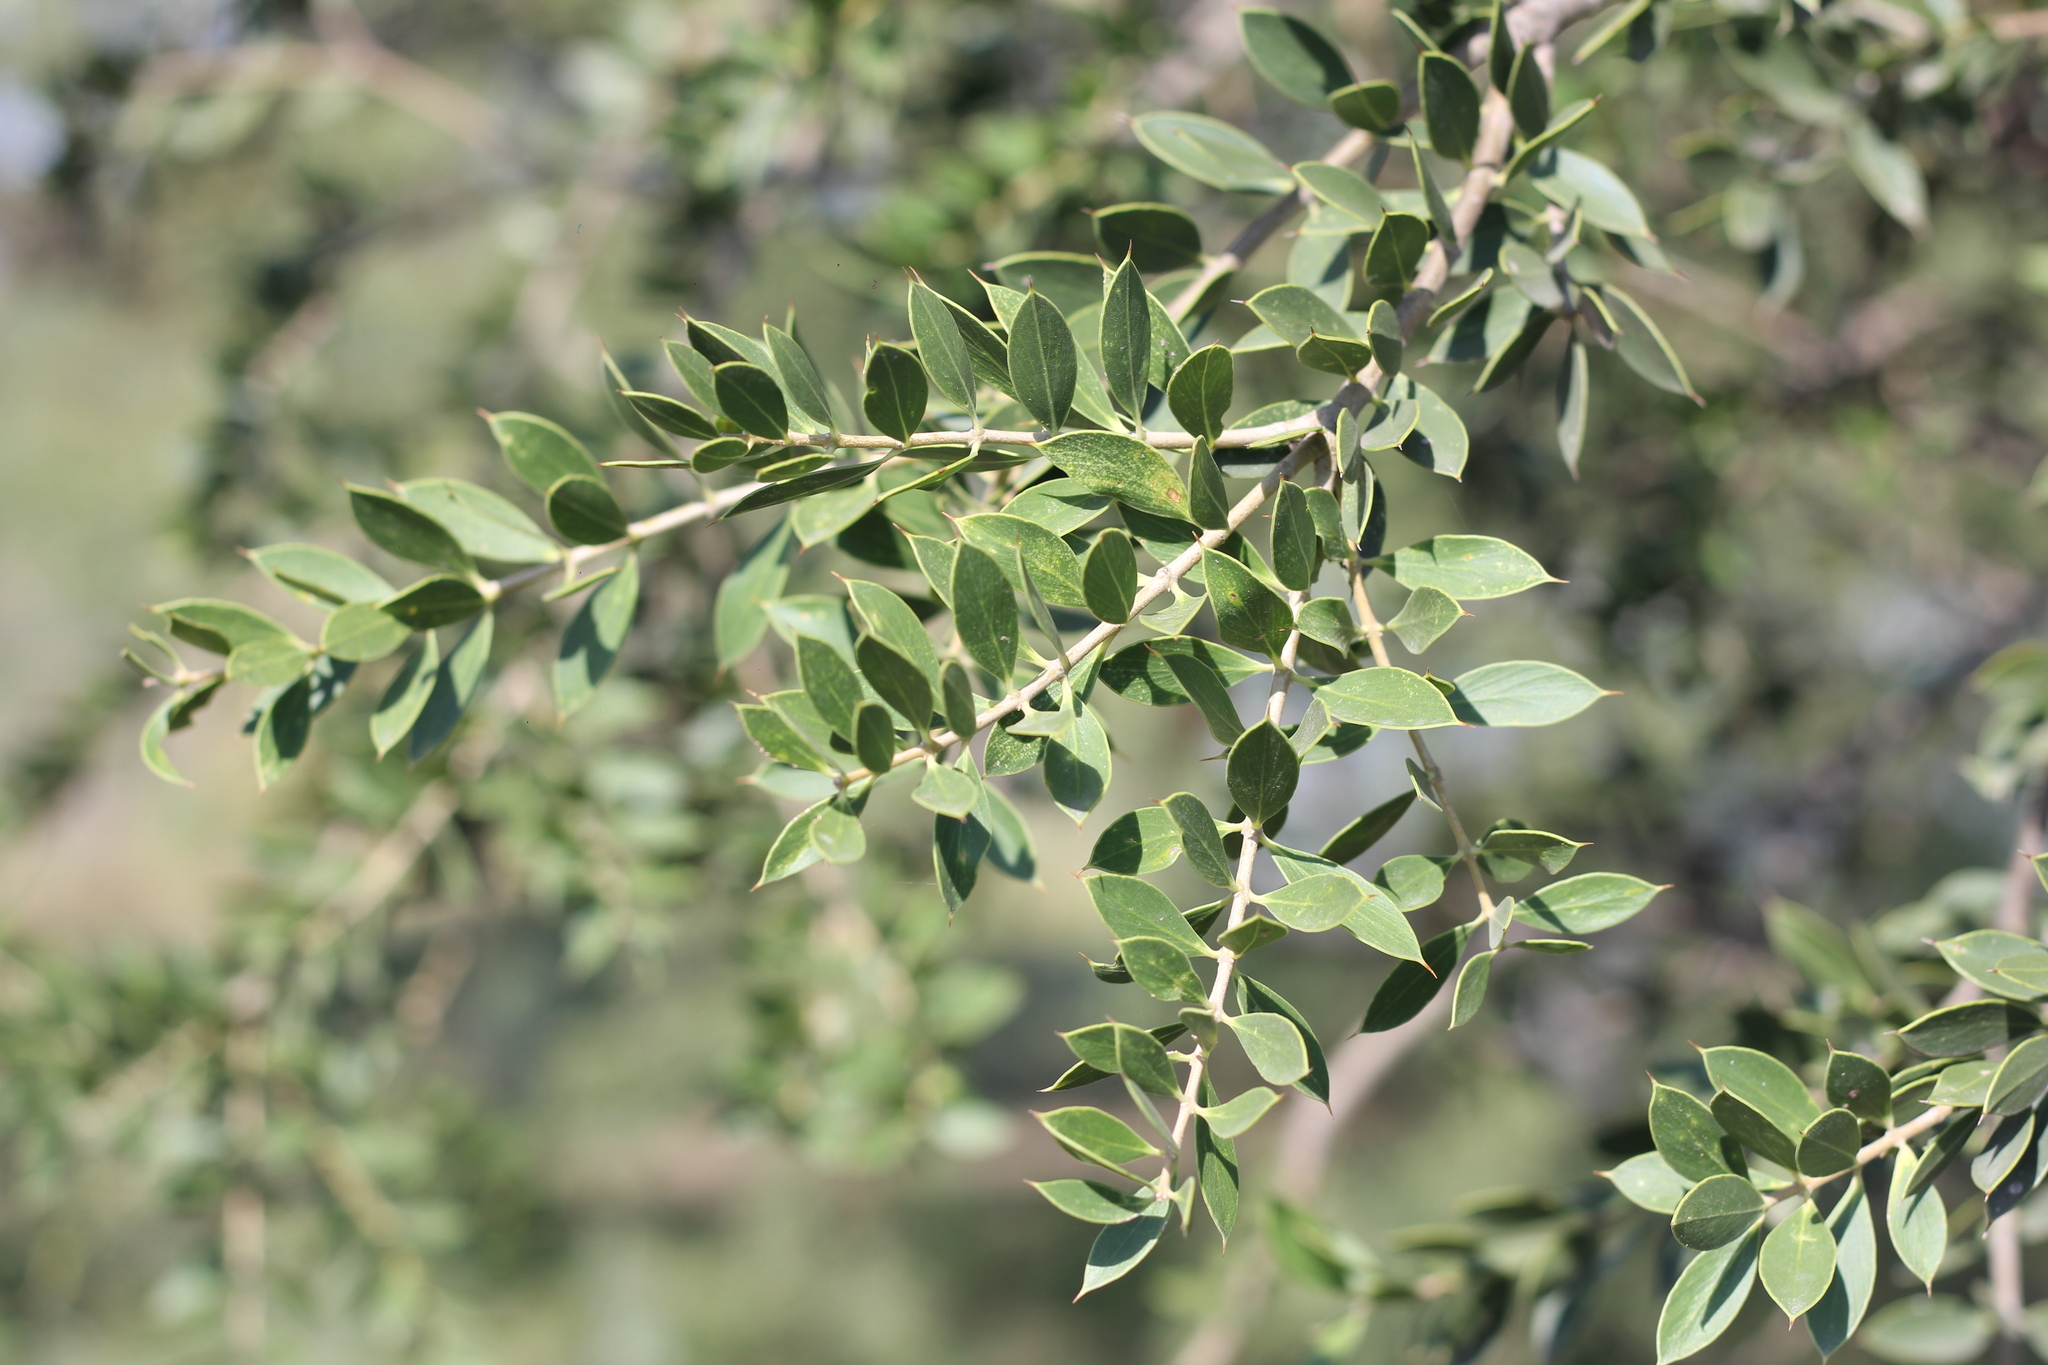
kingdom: Plantae
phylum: Tracheophyta
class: Magnoliopsida
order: Gentianales
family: Apocynaceae
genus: Aspidosperma
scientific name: Aspidosperma quebracho-blanco
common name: White quebracho
